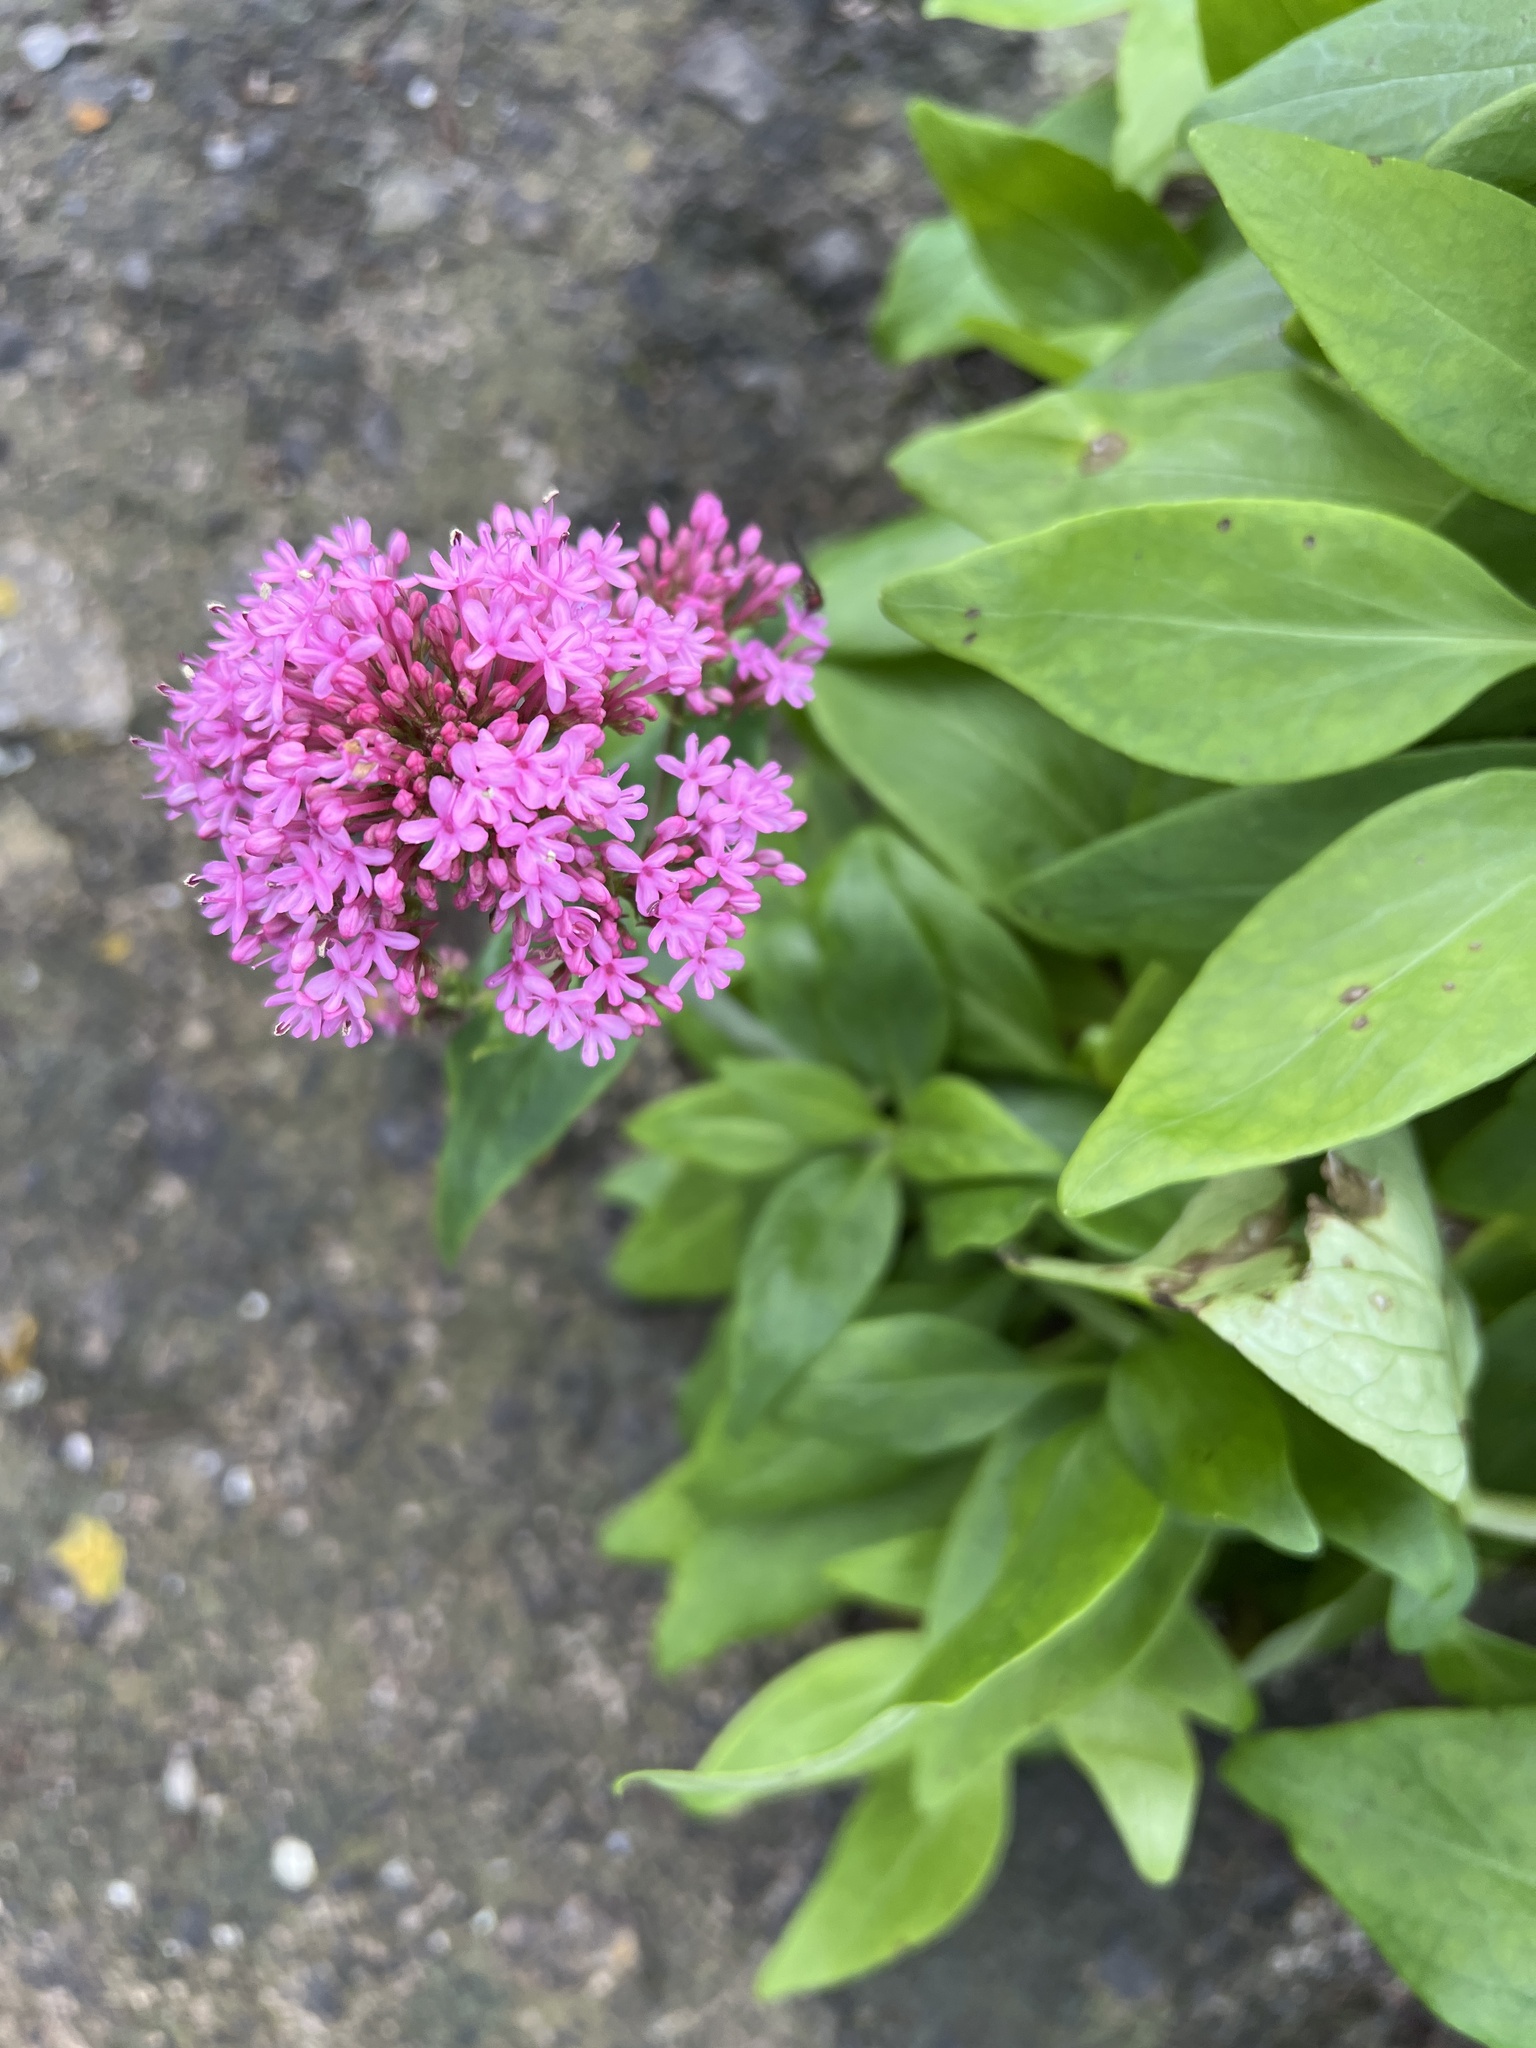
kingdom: Plantae
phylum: Tracheophyta
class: Magnoliopsida
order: Dipsacales
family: Caprifoliaceae
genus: Centranthus
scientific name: Centranthus ruber
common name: Red valerian
